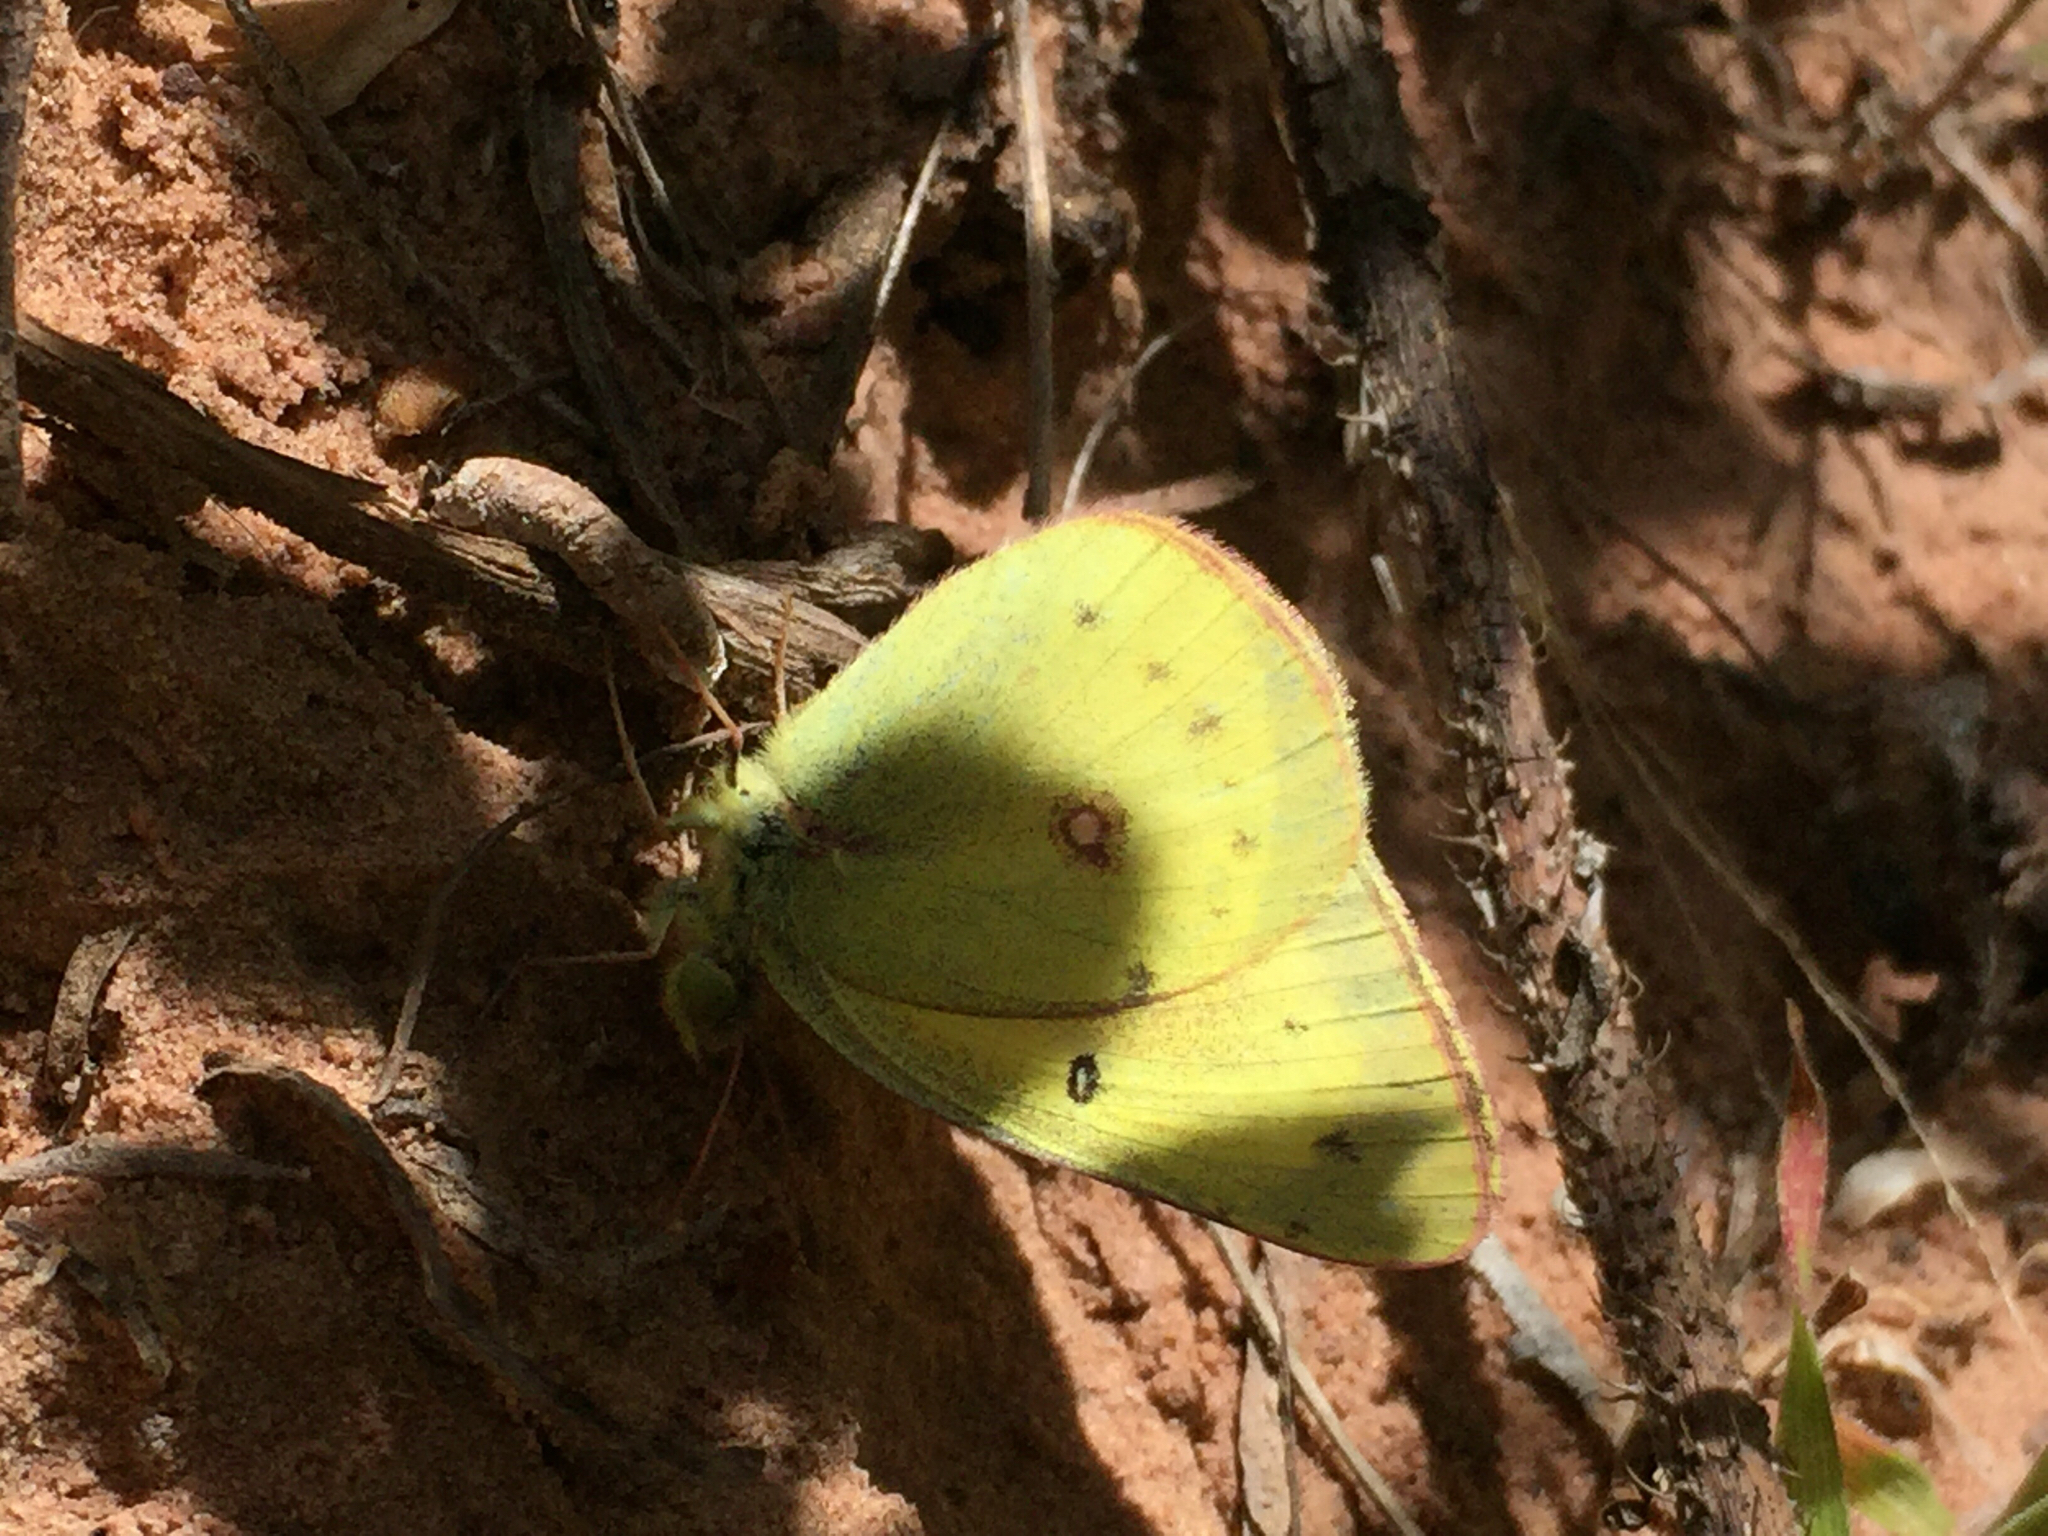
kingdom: Animalia
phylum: Arthropoda
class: Insecta
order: Lepidoptera
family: Pieridae
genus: Colias
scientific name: Colias eurytheme
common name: Alfalfa butterfly
